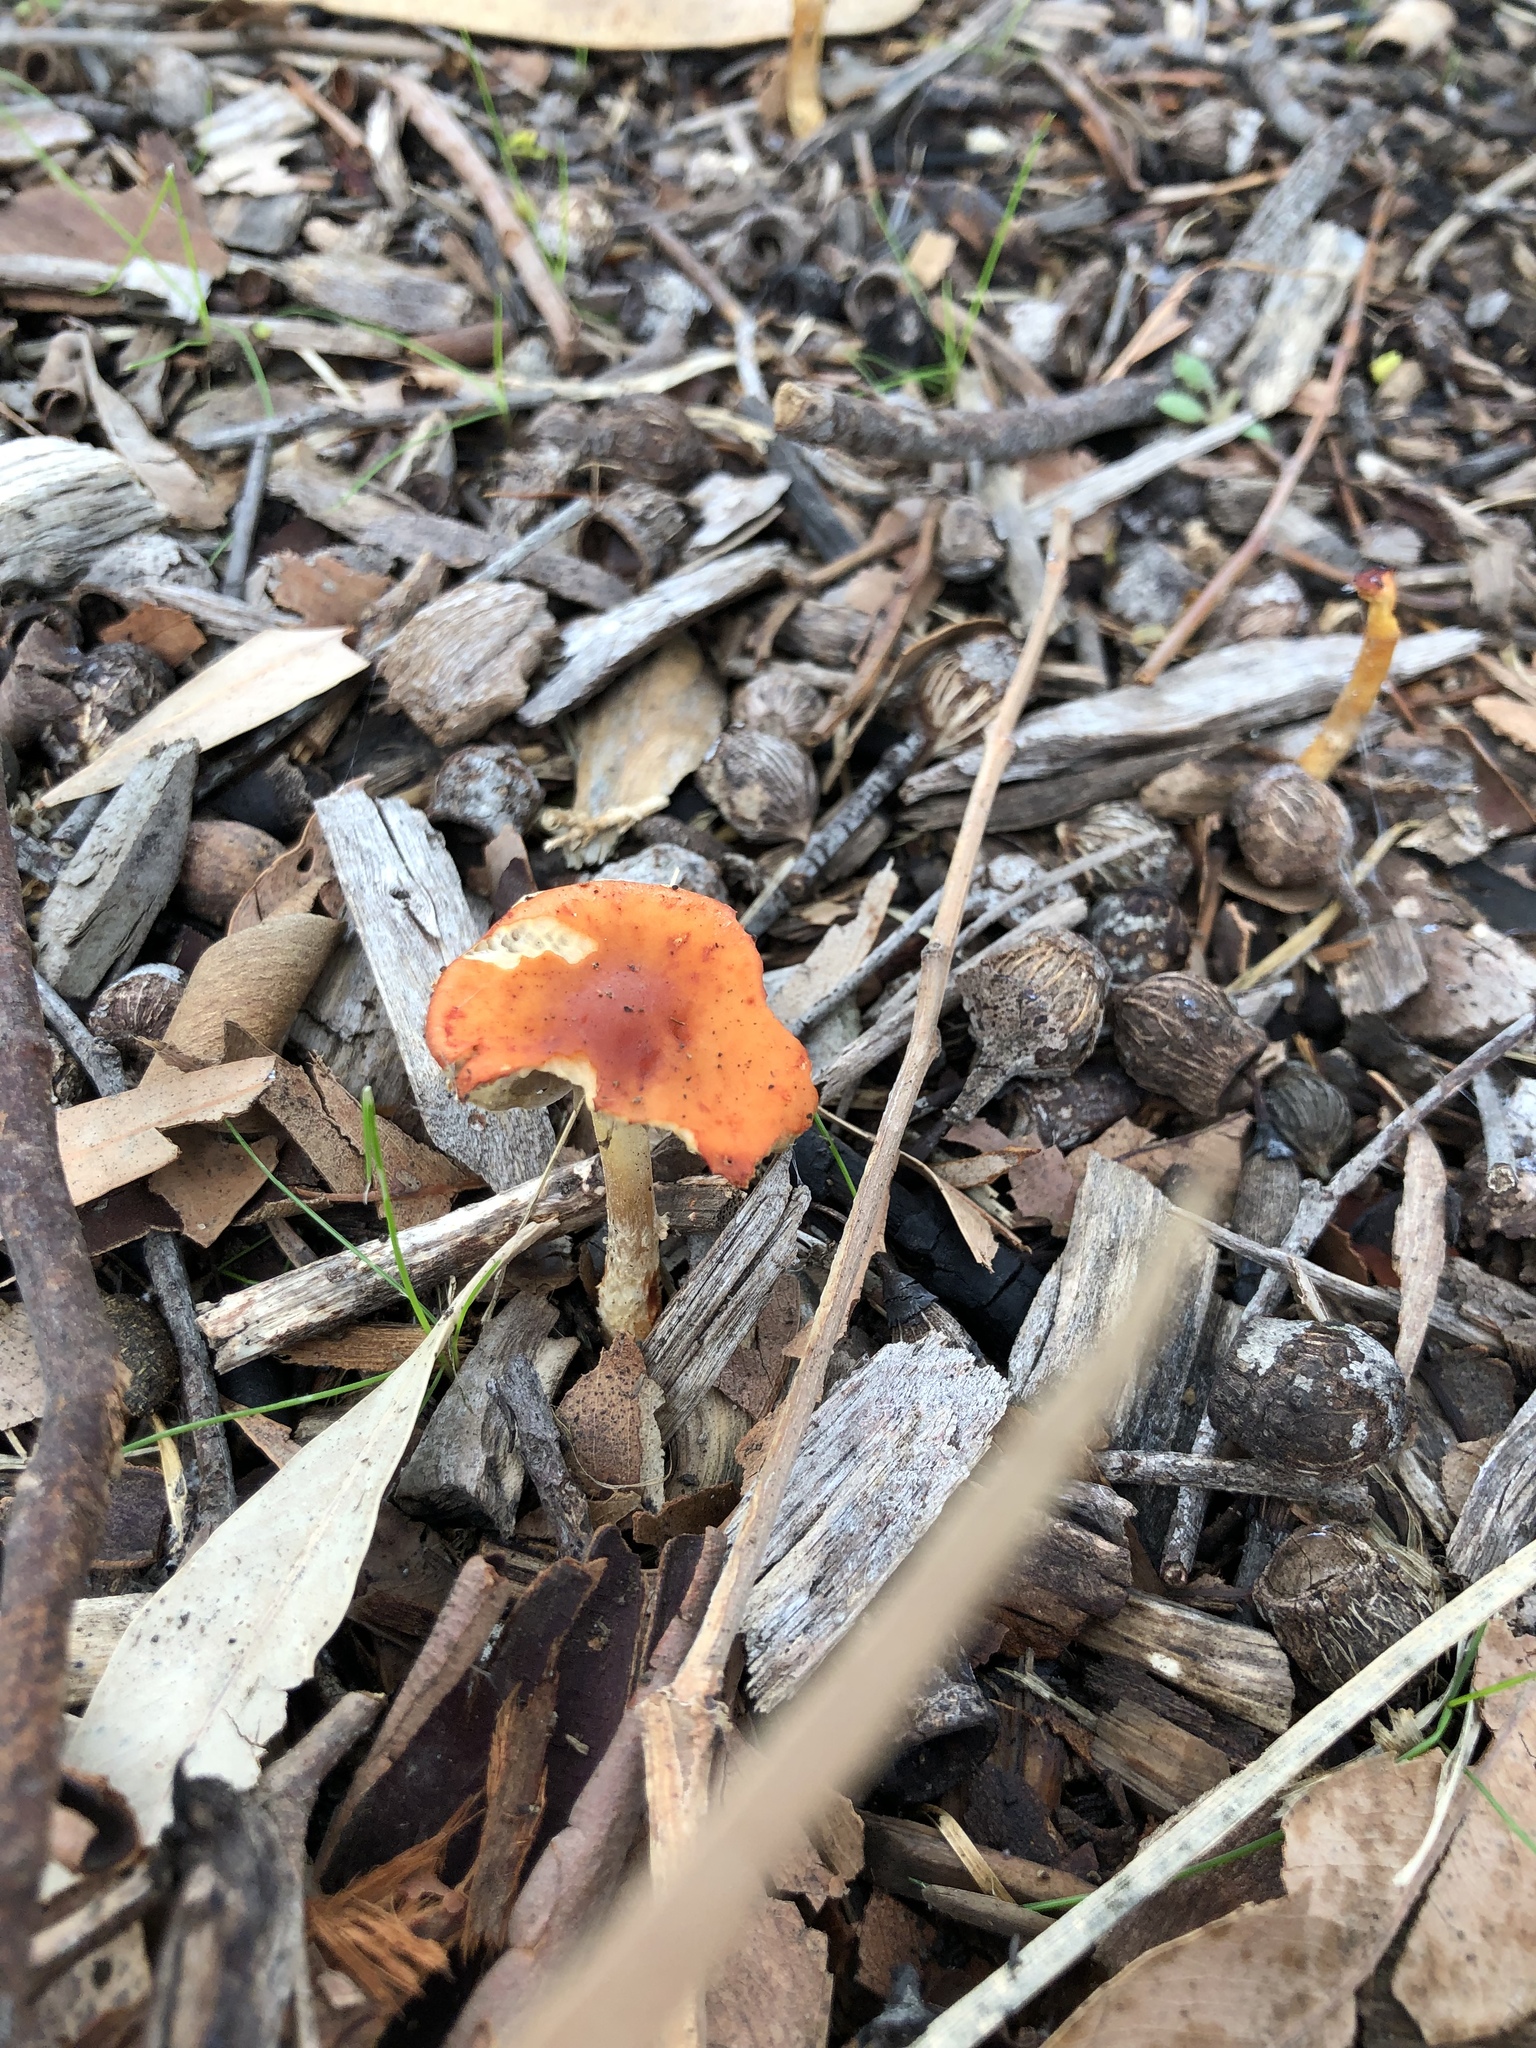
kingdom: Fungi
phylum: Basidiomycota
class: Agaricomycetes
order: Agaricales
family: Strophariaceae
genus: Leratiomyces
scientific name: Leratiomyces ceres
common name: Redlead roundhead
